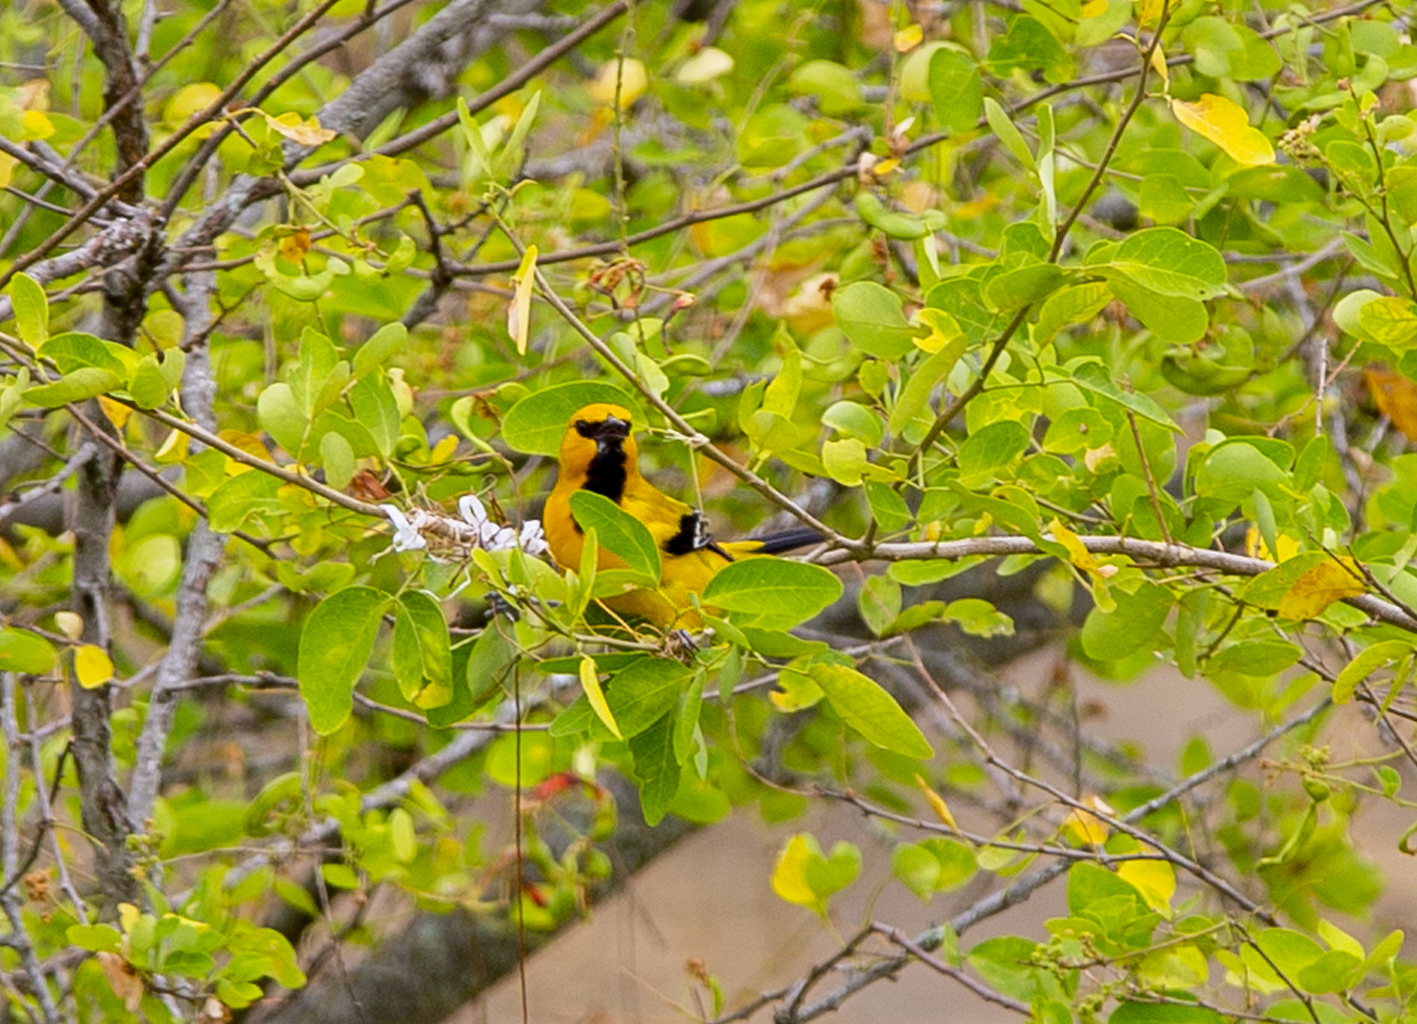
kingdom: Animalia
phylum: Chordata
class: Aves
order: Passeriformes
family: Icteridae
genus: Icterus
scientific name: Icterus nigrogularis
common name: Yellow oriole
